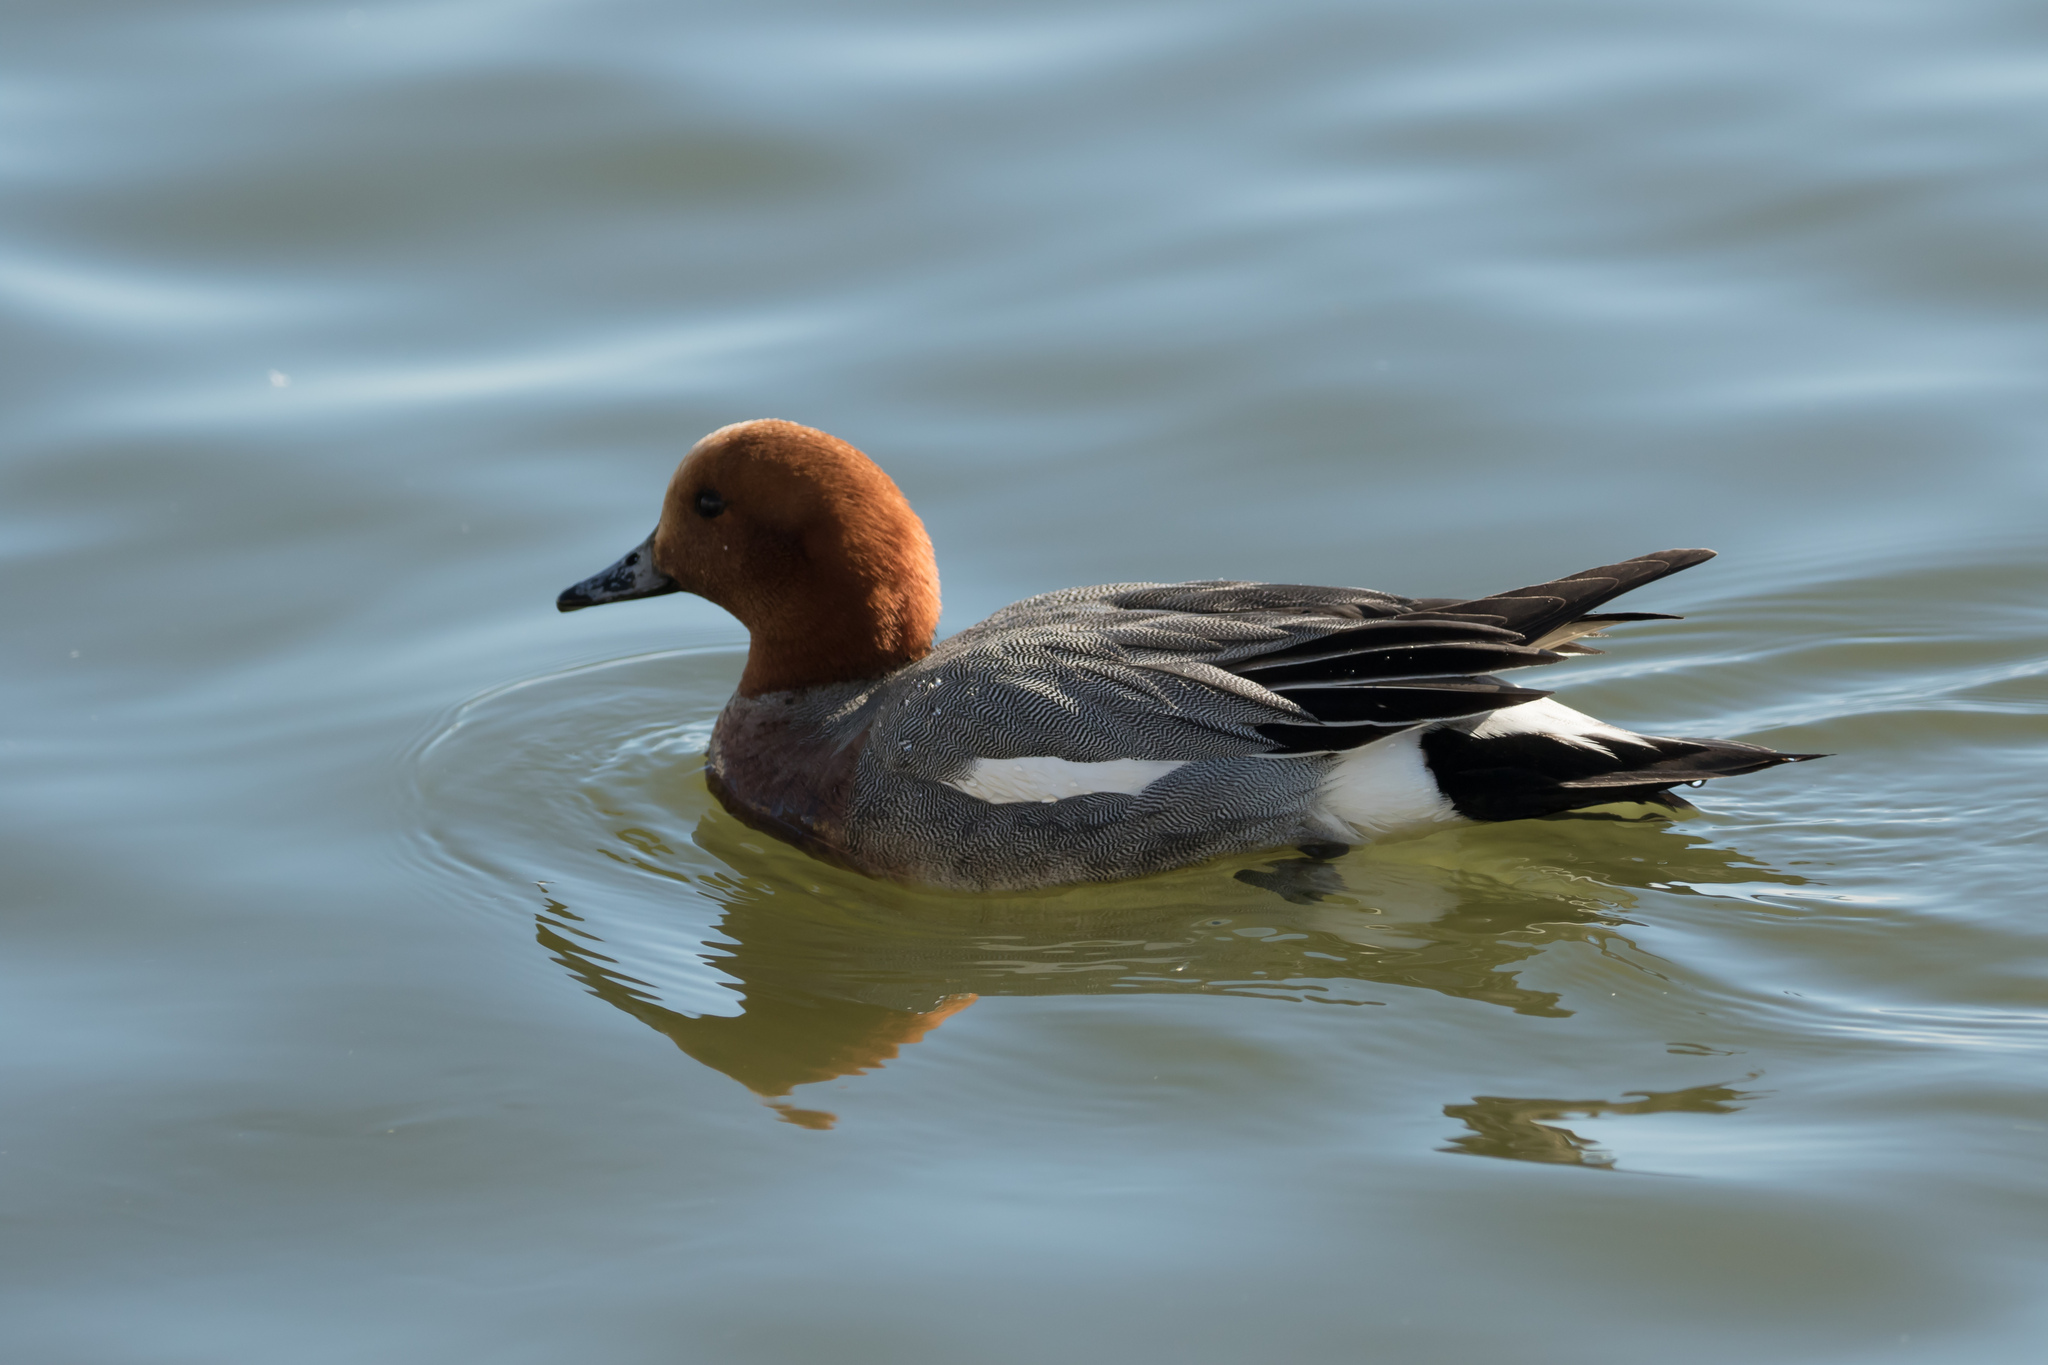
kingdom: Animalia
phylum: Chordata
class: Aves
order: Anseriformes
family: Anatidae
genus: Mareca
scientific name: Mareca penelope
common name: Eurasian wigeon
